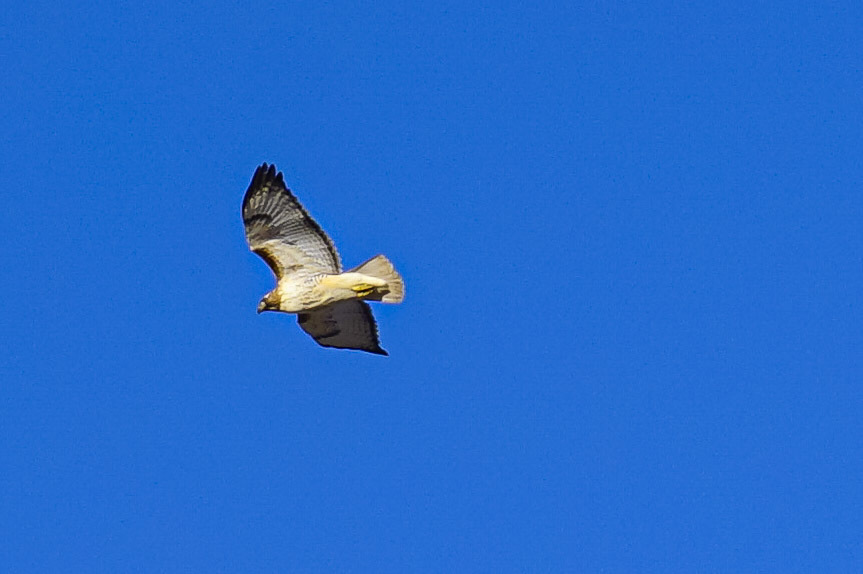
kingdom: Animalia
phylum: Chordata
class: Aves
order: Accipitriformes
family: Accipitridae
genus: Buteo
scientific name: Buteo jamaicensis
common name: Red-tailed hawk
